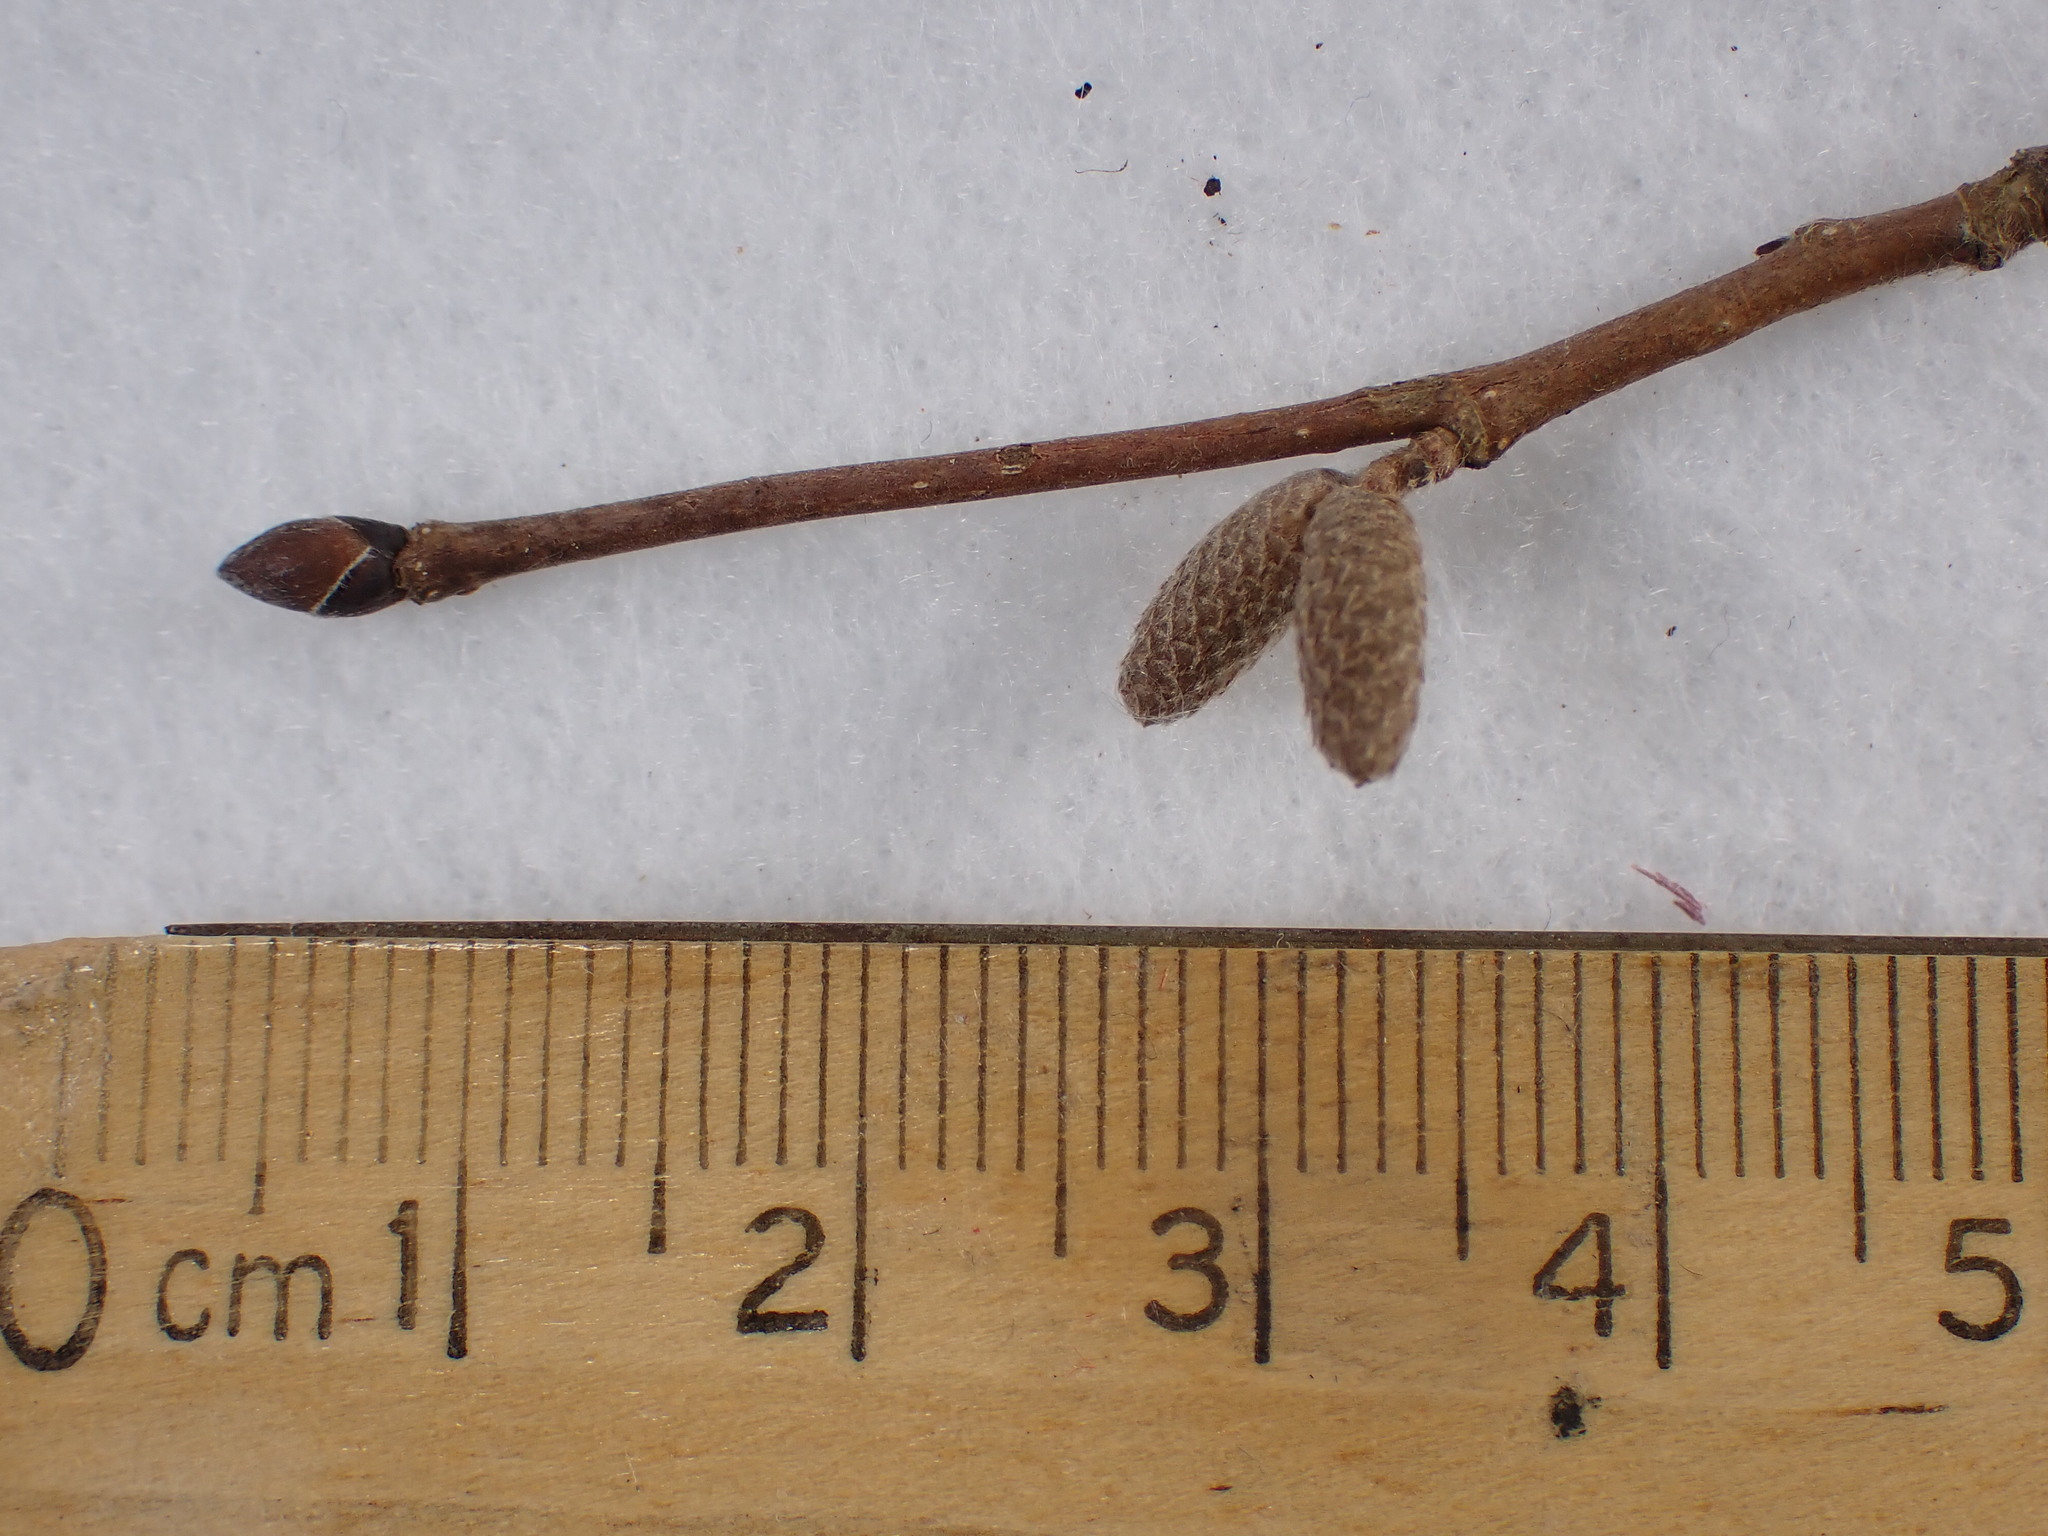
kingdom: Plantae
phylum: Tracheophyta
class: Magnoliopsida
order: Fagales
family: Betulaceae
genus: Corylus
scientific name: Corylus cornuta
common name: Beaked hazel
